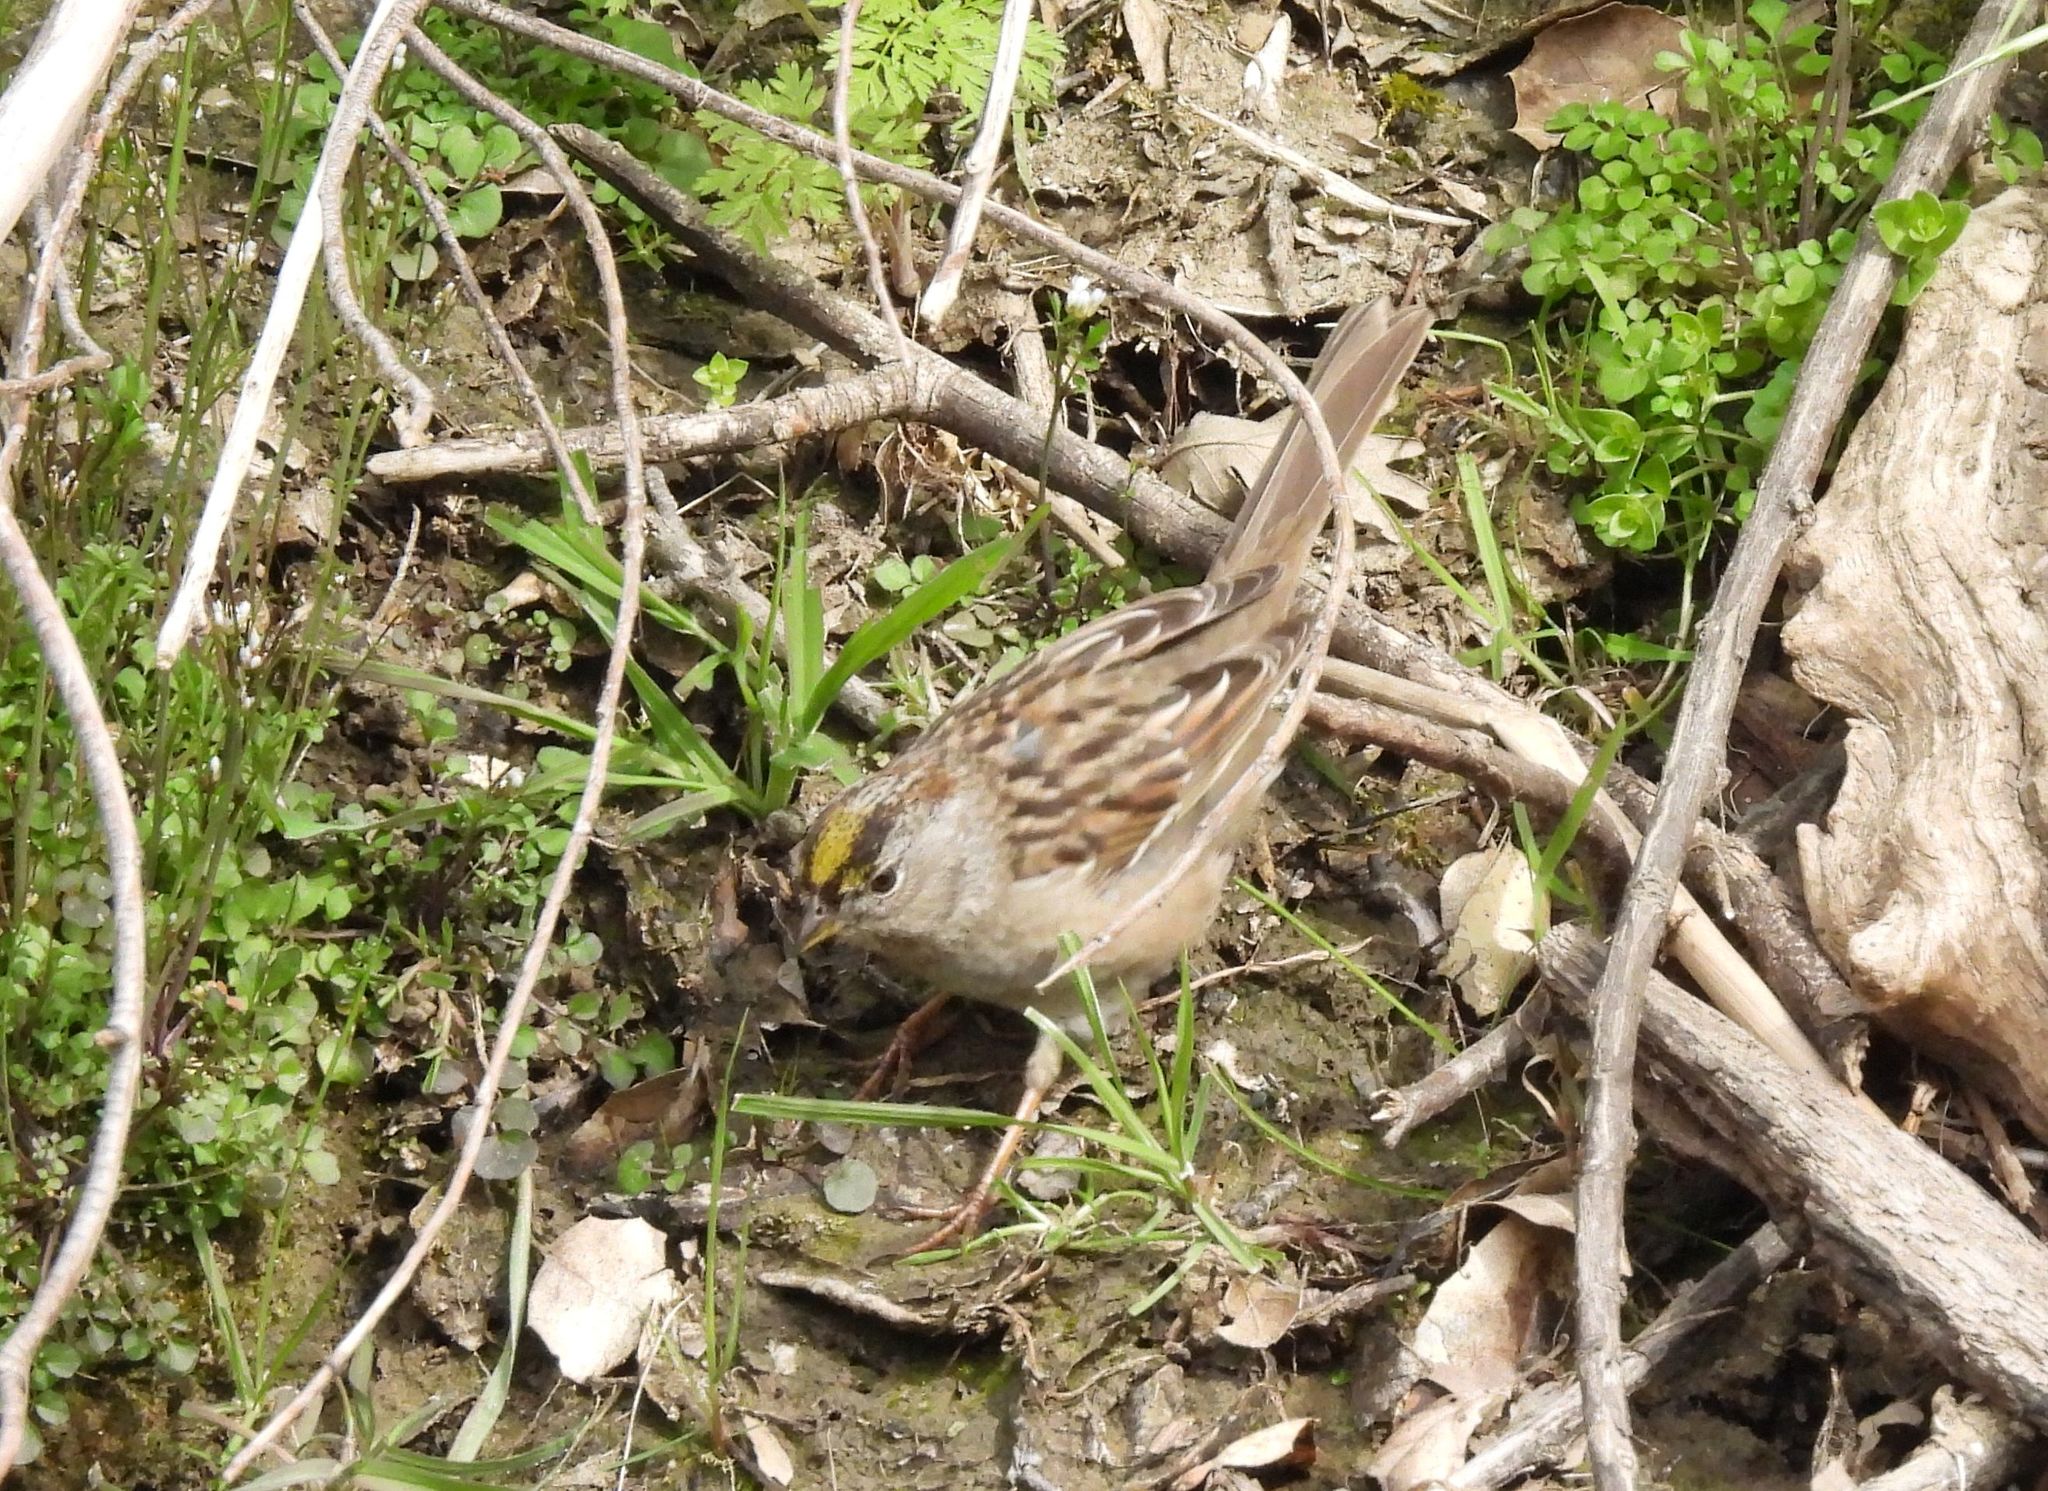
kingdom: Animalia
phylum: Chordata
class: Aves
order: Passeriformes
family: Passerellidae
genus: Zonotrichia
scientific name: Zonotrichia atricapilla
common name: Golden-crowned sparrow
